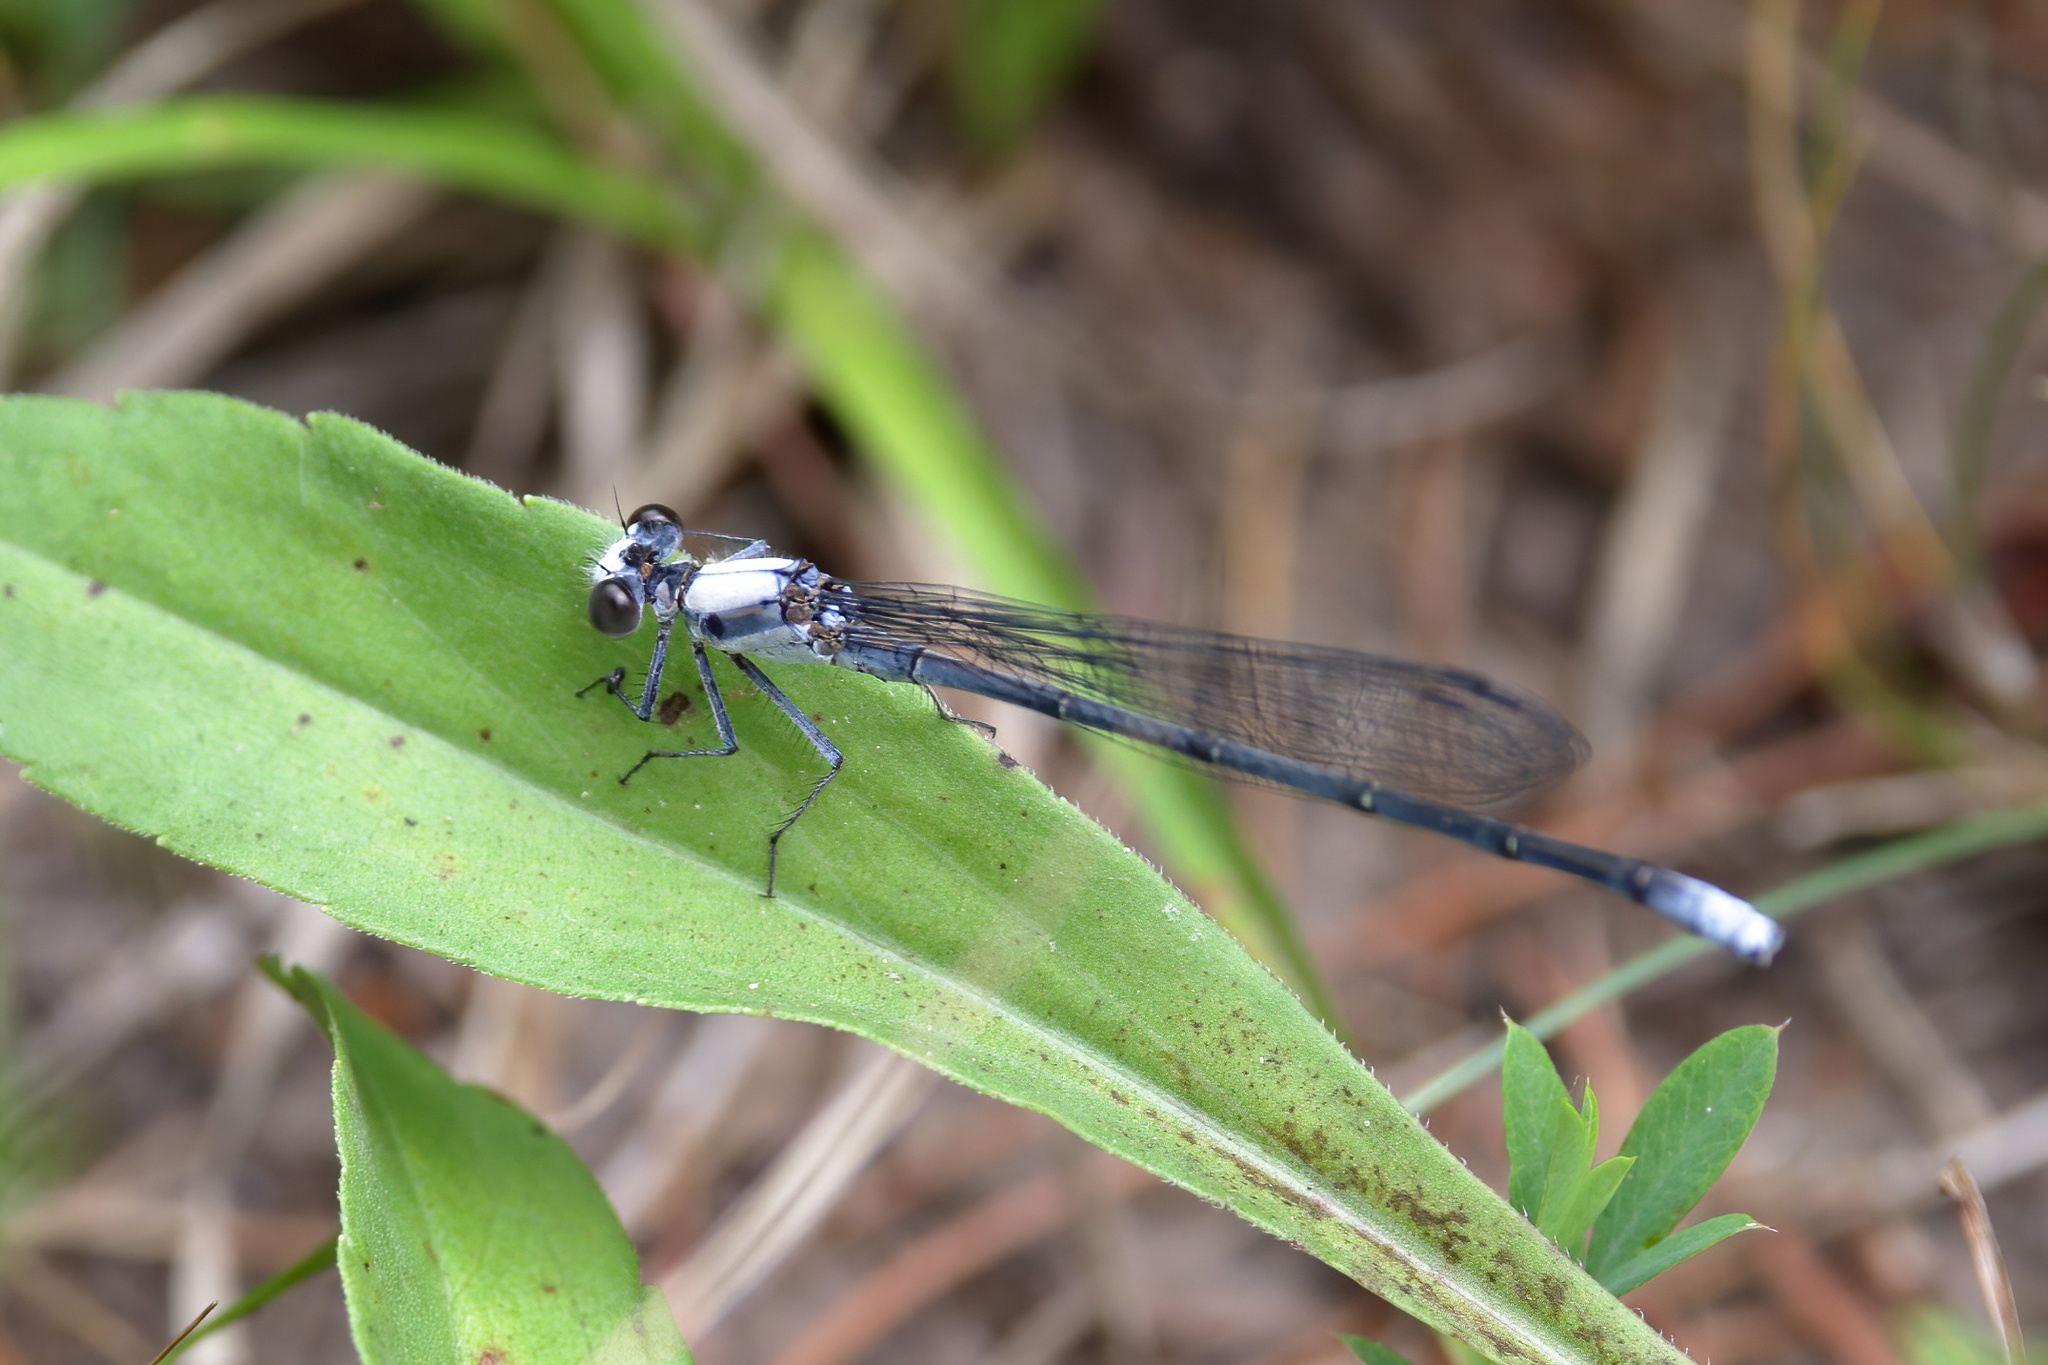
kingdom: Animalia
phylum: Arthropoda
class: Insecta
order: Odonata
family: Coenagrionidae
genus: Argia
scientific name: Argia moesta
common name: Powdered dancer
